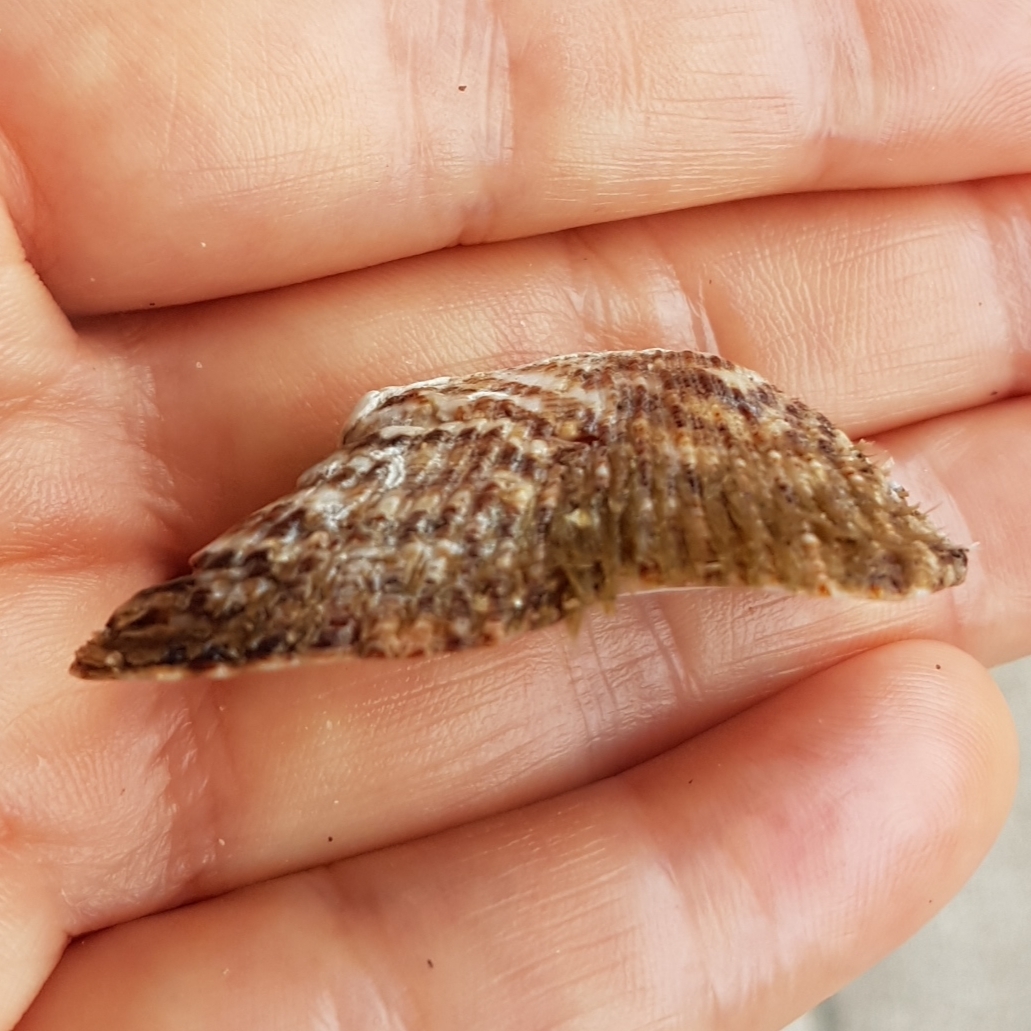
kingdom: Animalia
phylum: Mollusca
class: Bivalvia
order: Arcida
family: Arcidae
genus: Arca
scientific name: Arca noae
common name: Noah's arch
